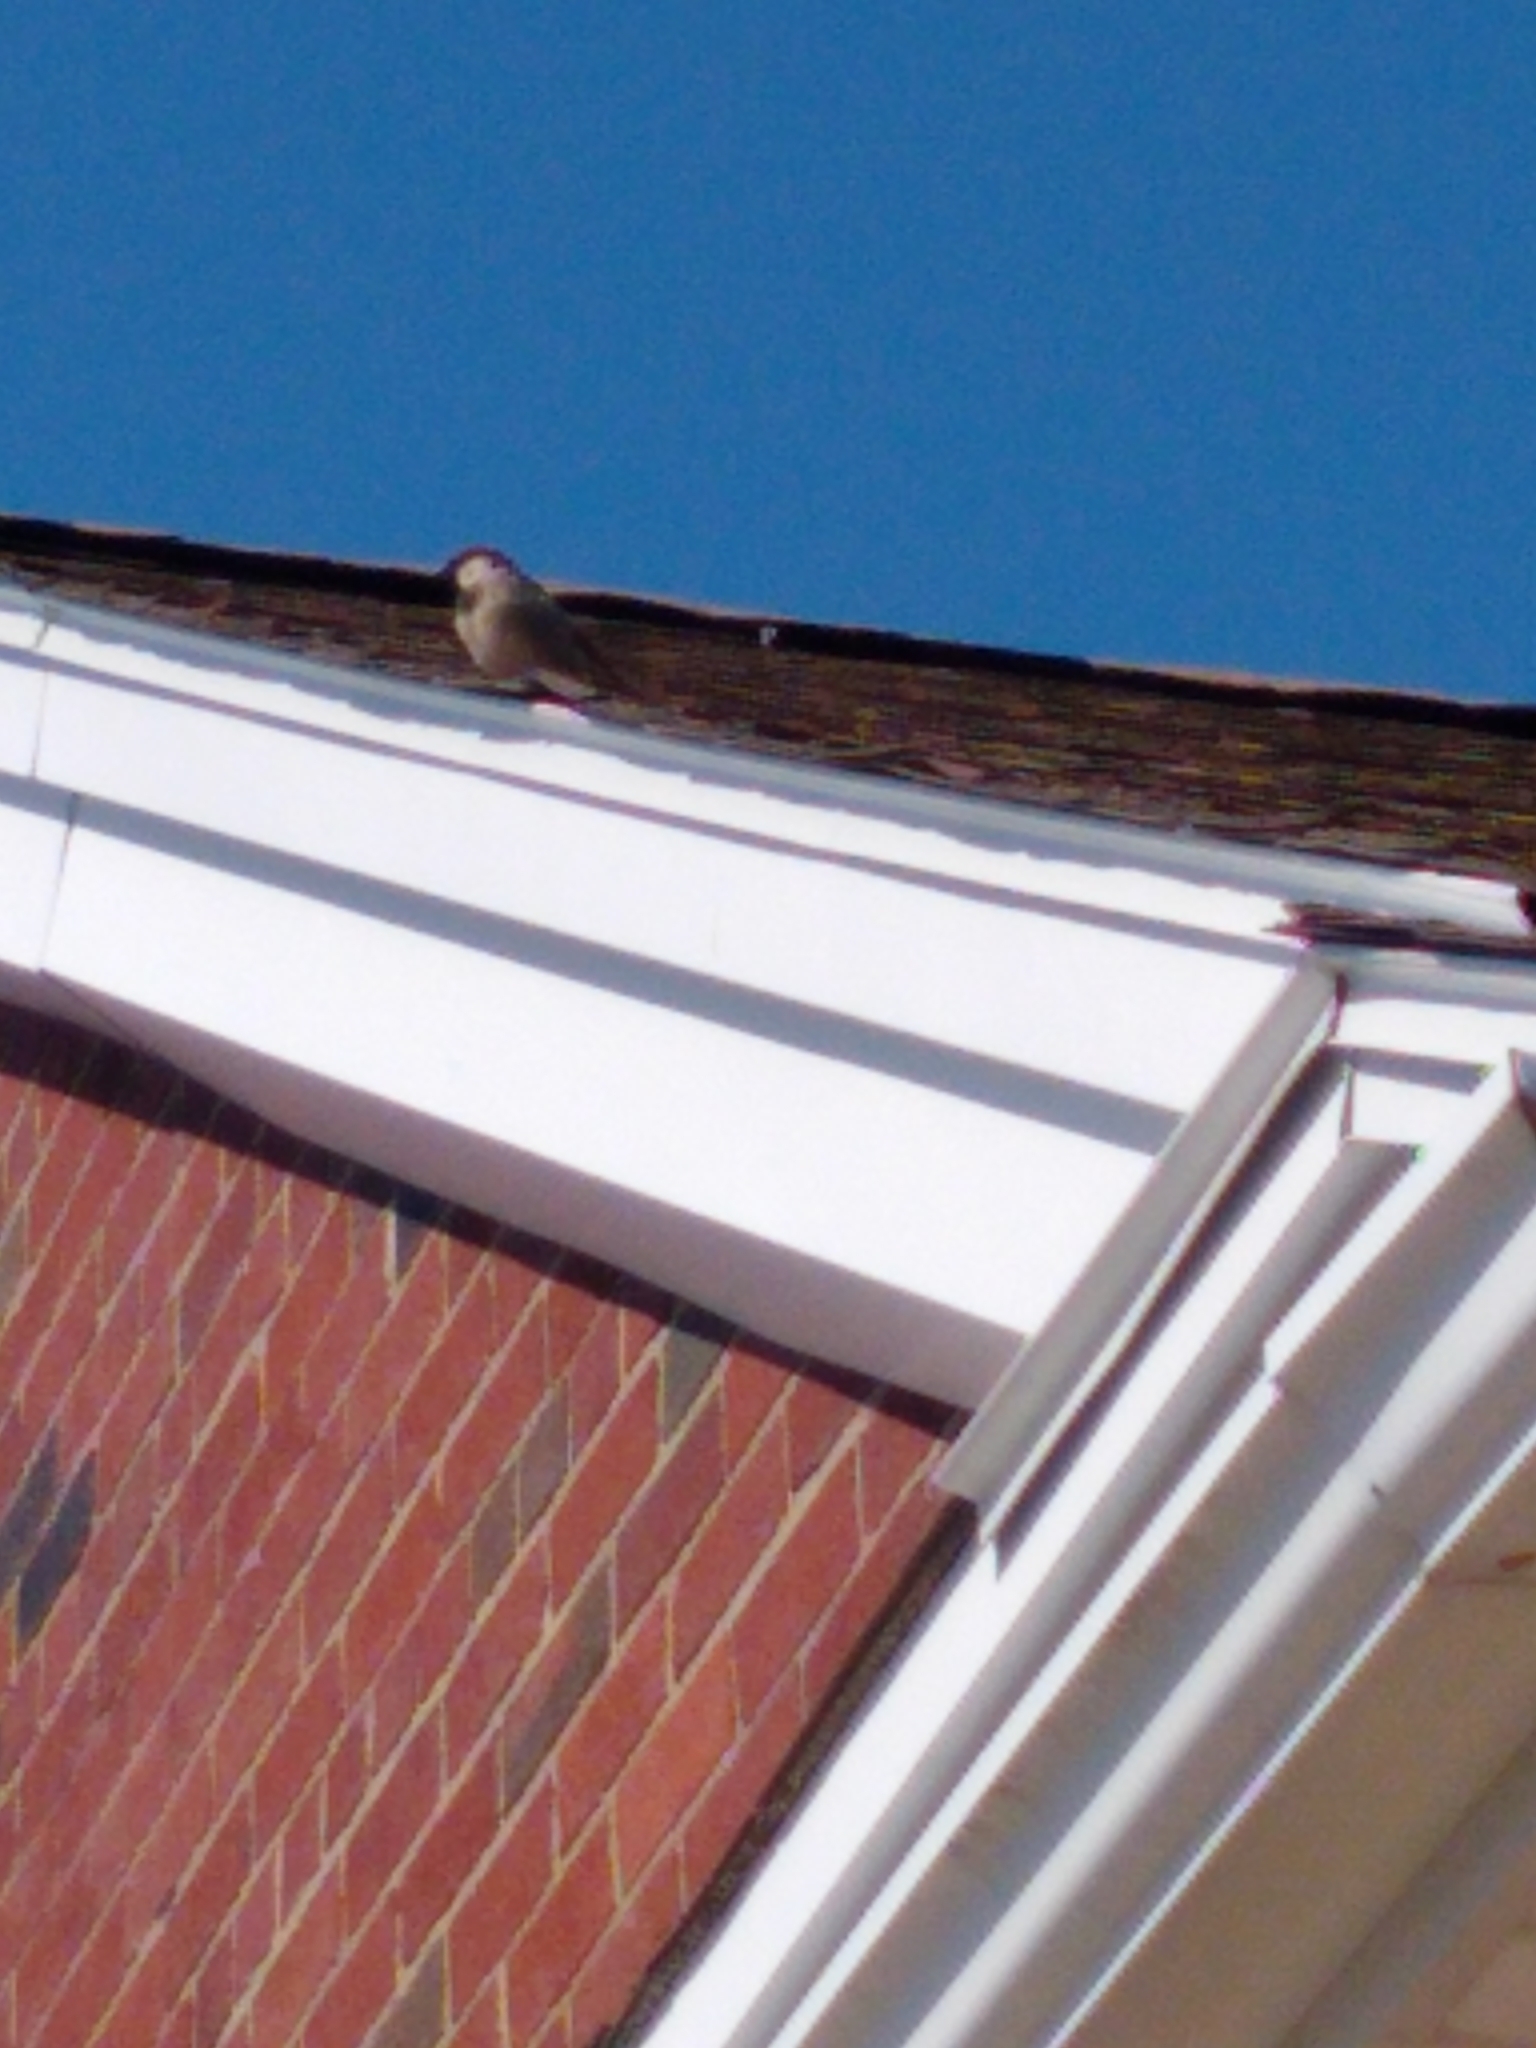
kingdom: Animalia
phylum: Chordata
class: Aves
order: Passeriformes
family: Passeridae
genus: Passer
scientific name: Passer domesticus
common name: House sparrow
